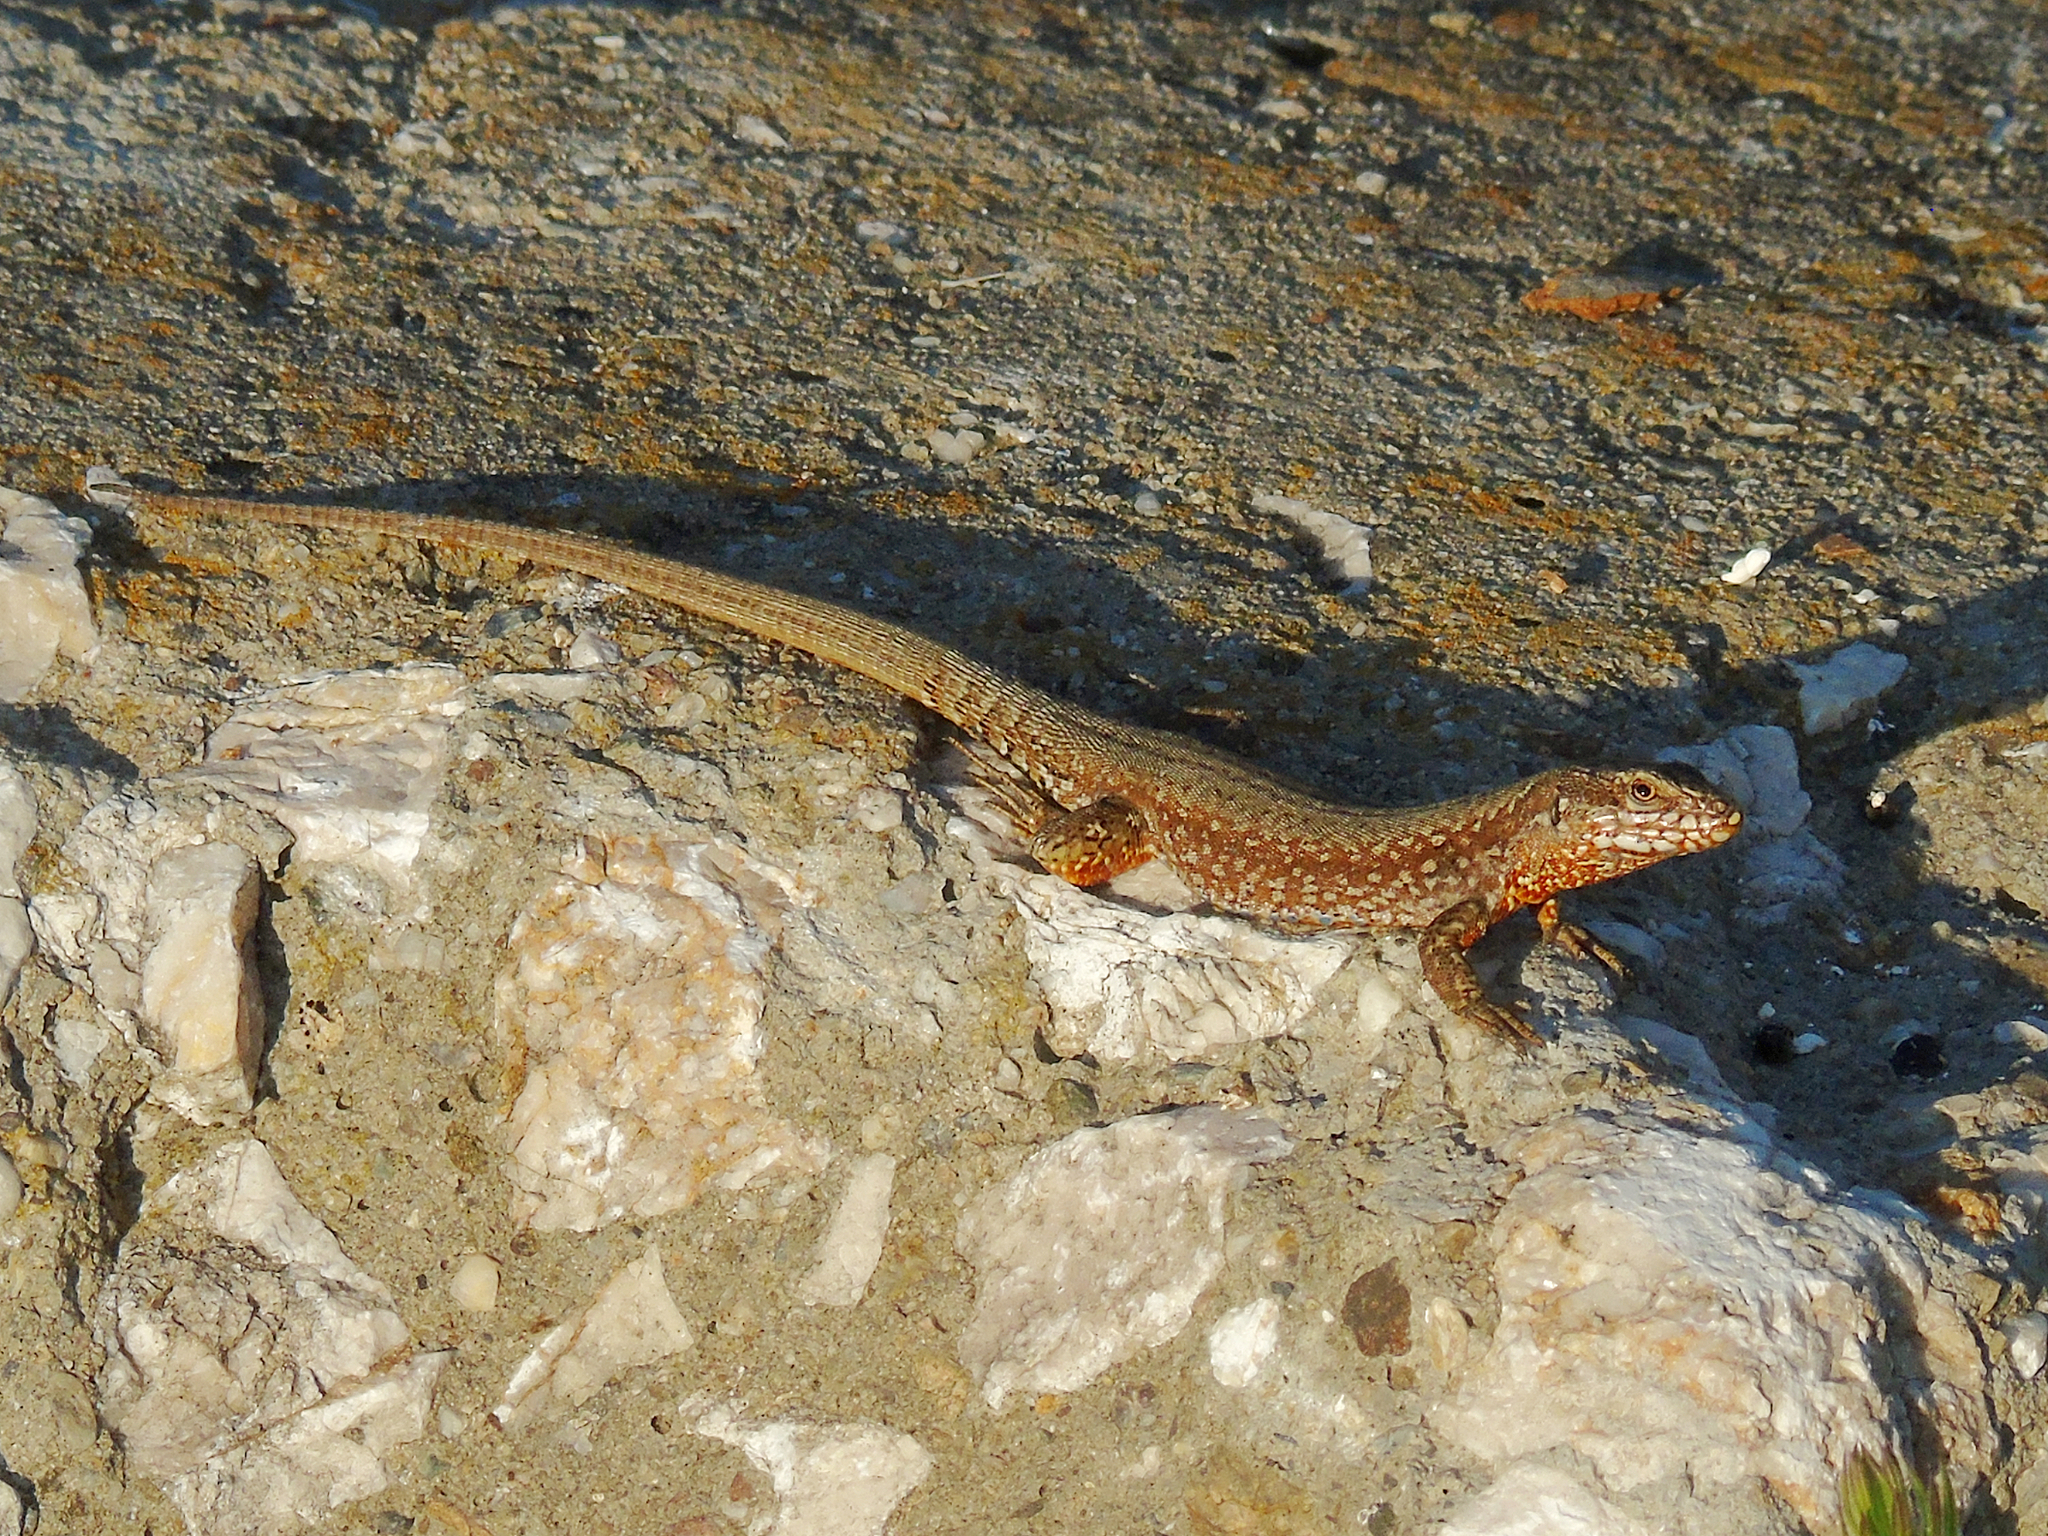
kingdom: Animalia
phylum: Chordata
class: Squamata
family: Lacertidae
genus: Podarcis
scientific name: Podarcis muralis
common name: Common wall lizard
